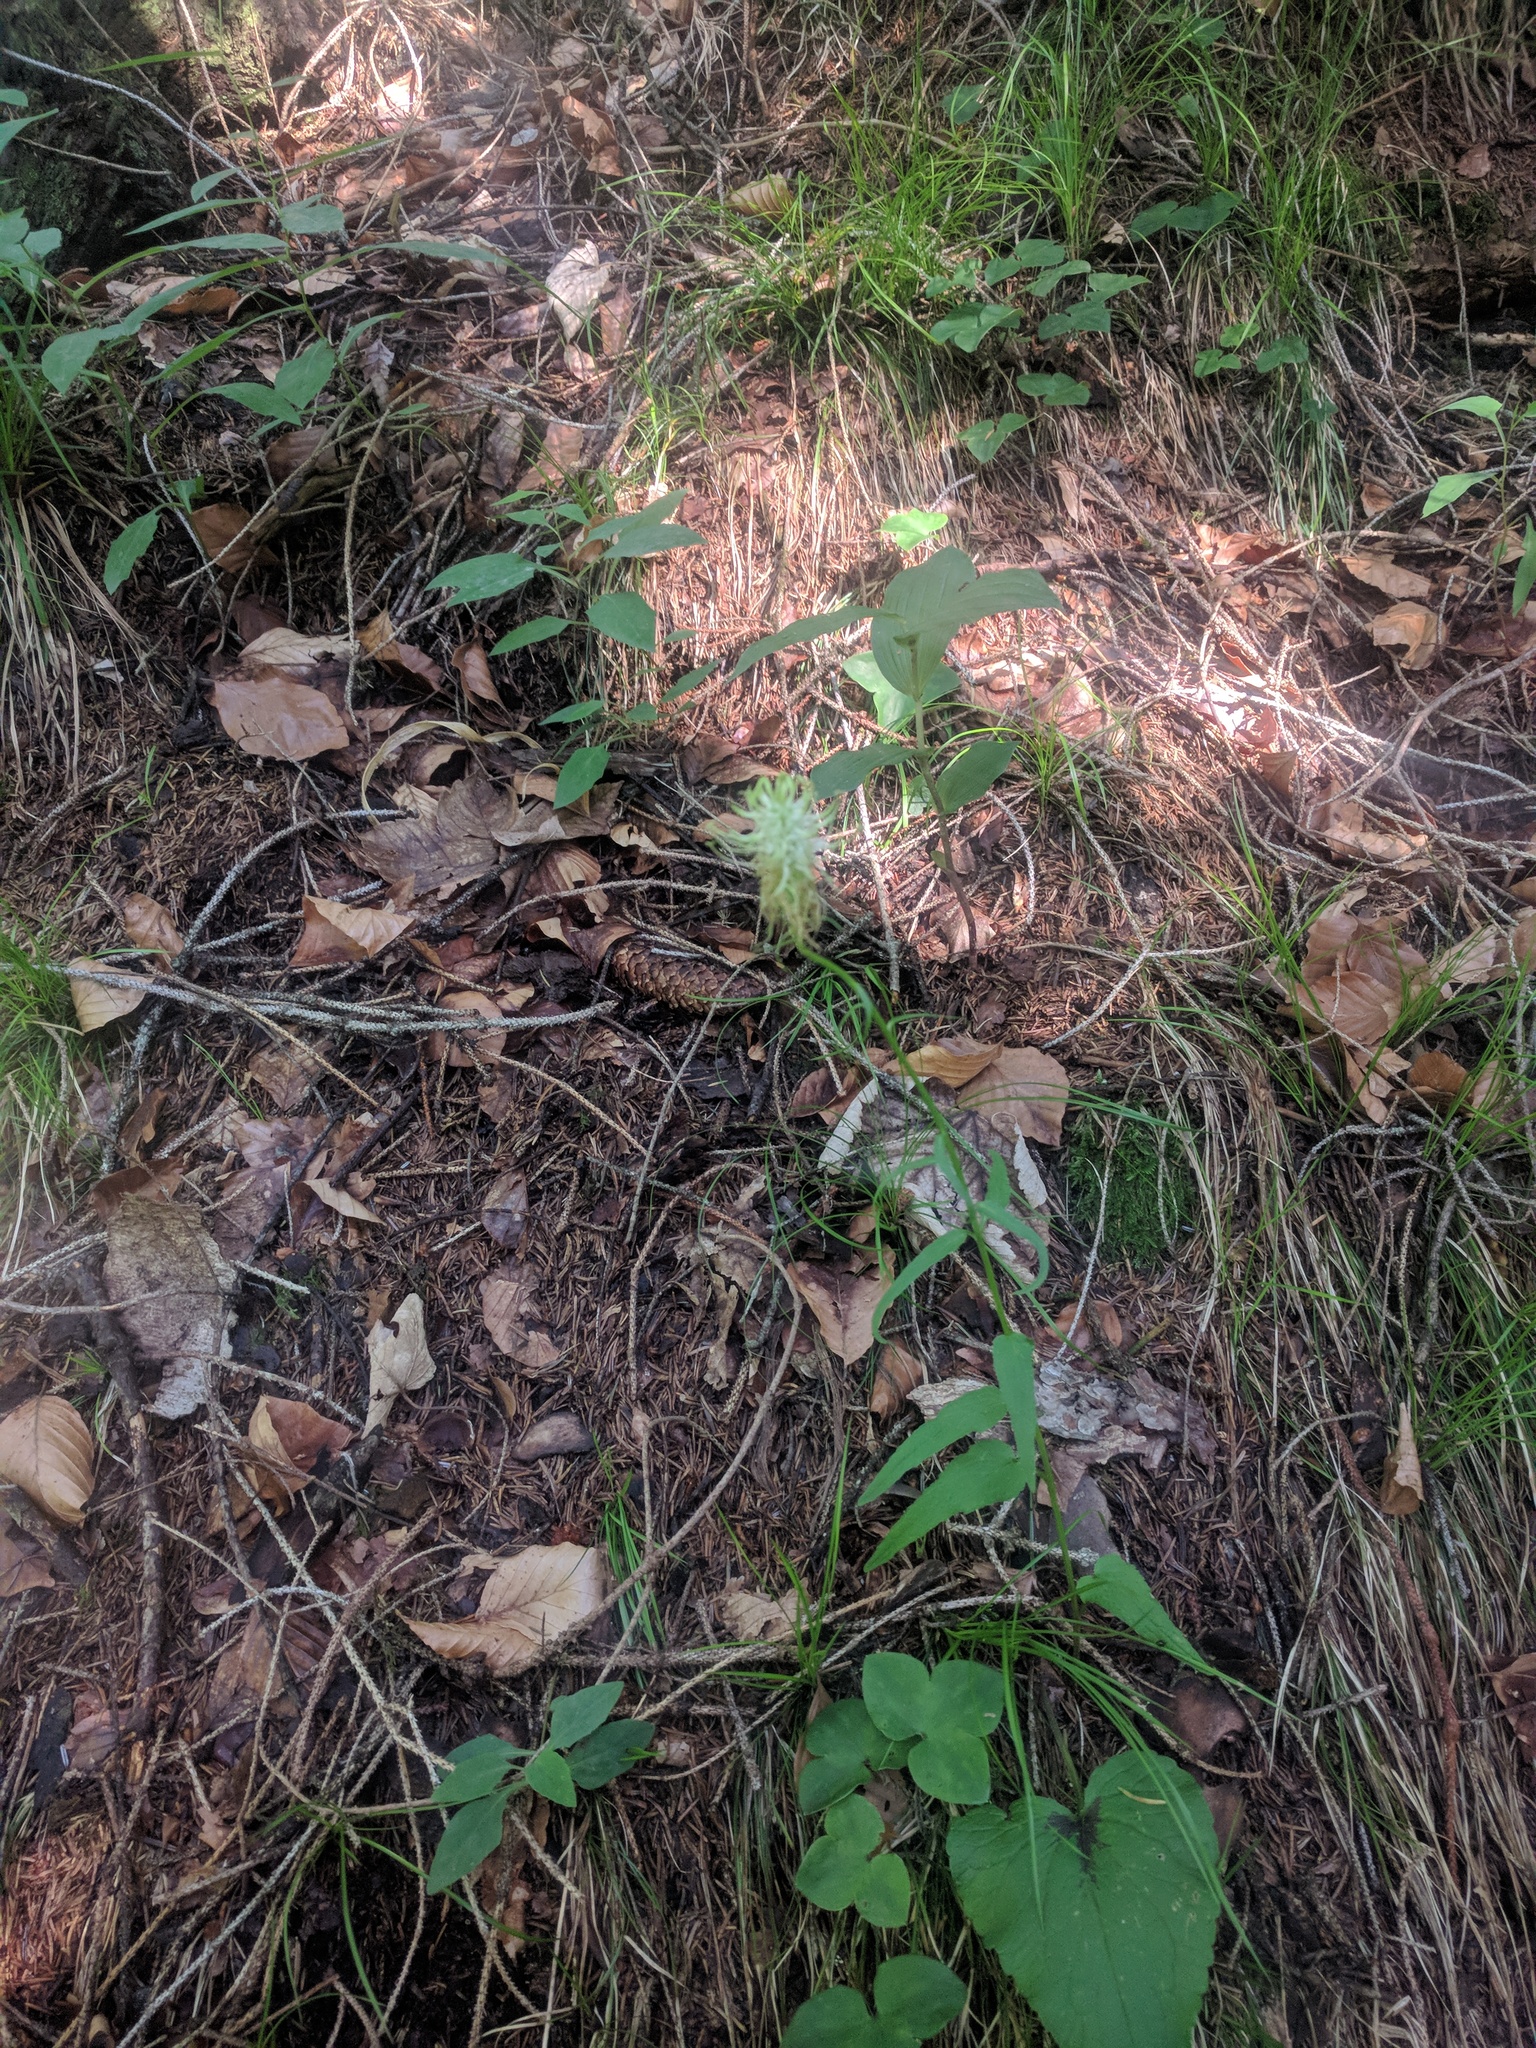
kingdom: Plantae
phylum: Tracheophyta
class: Magnoliopsida
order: Asterales
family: Campanulaceae
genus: Phyteuma
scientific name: Phyteuma spicatum
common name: Spiked rampion
